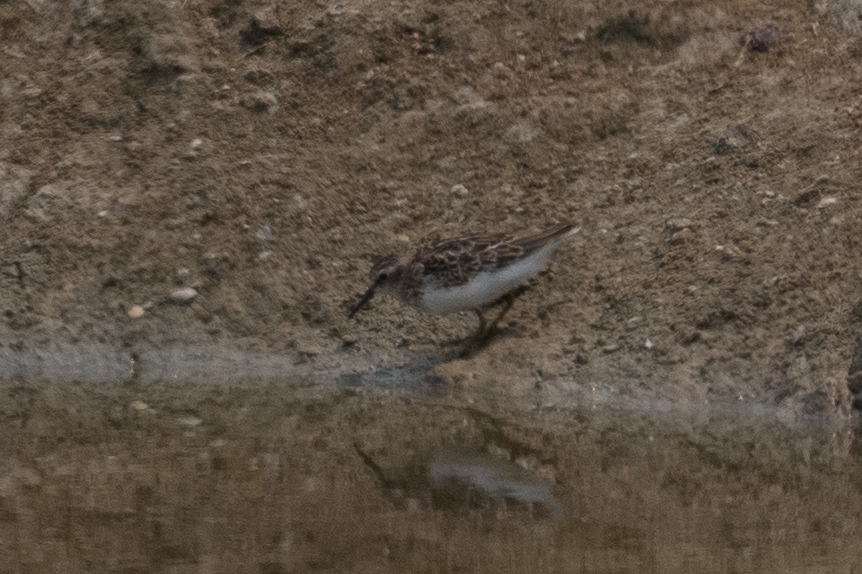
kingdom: Animalia
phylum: Chordata
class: Aves
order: Charadriiformes
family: Scolopacidae
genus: Calidris
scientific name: Calidris minutilla
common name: Least sandpiper
